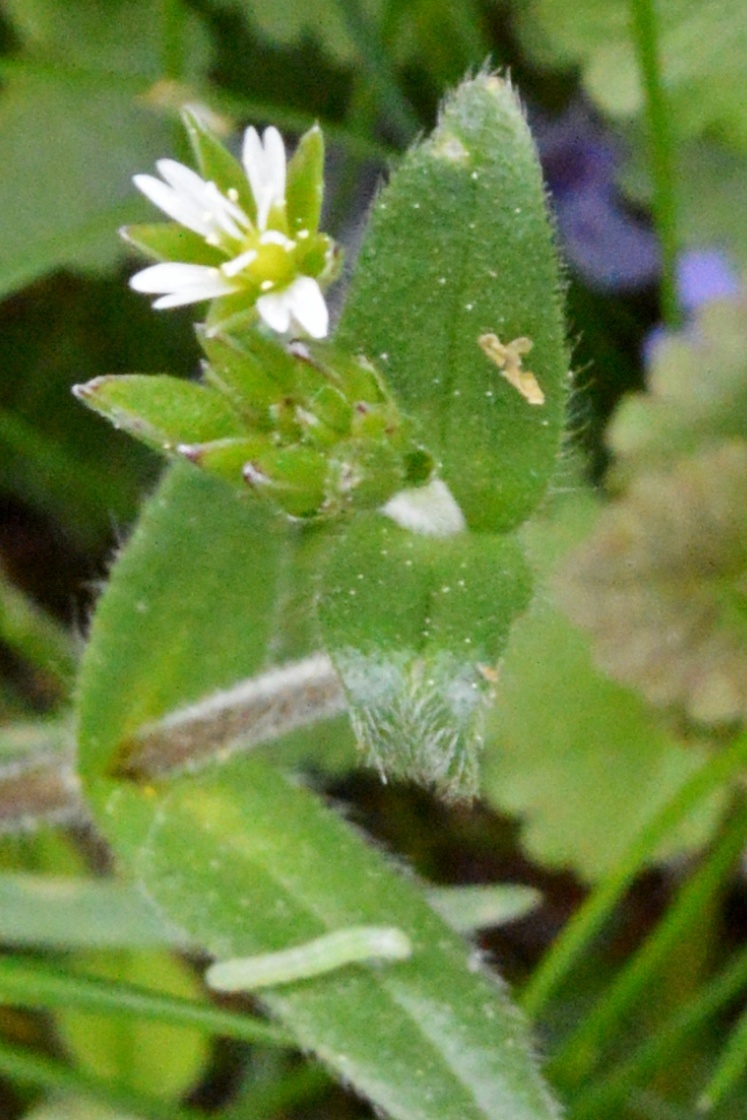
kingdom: Plantae
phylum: Tracheophyta
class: Magnoliopsida
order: Caryophyllales
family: Caryophyllaceae
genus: Cerastium
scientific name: Cerastium holosteoides
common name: Big chickweed
